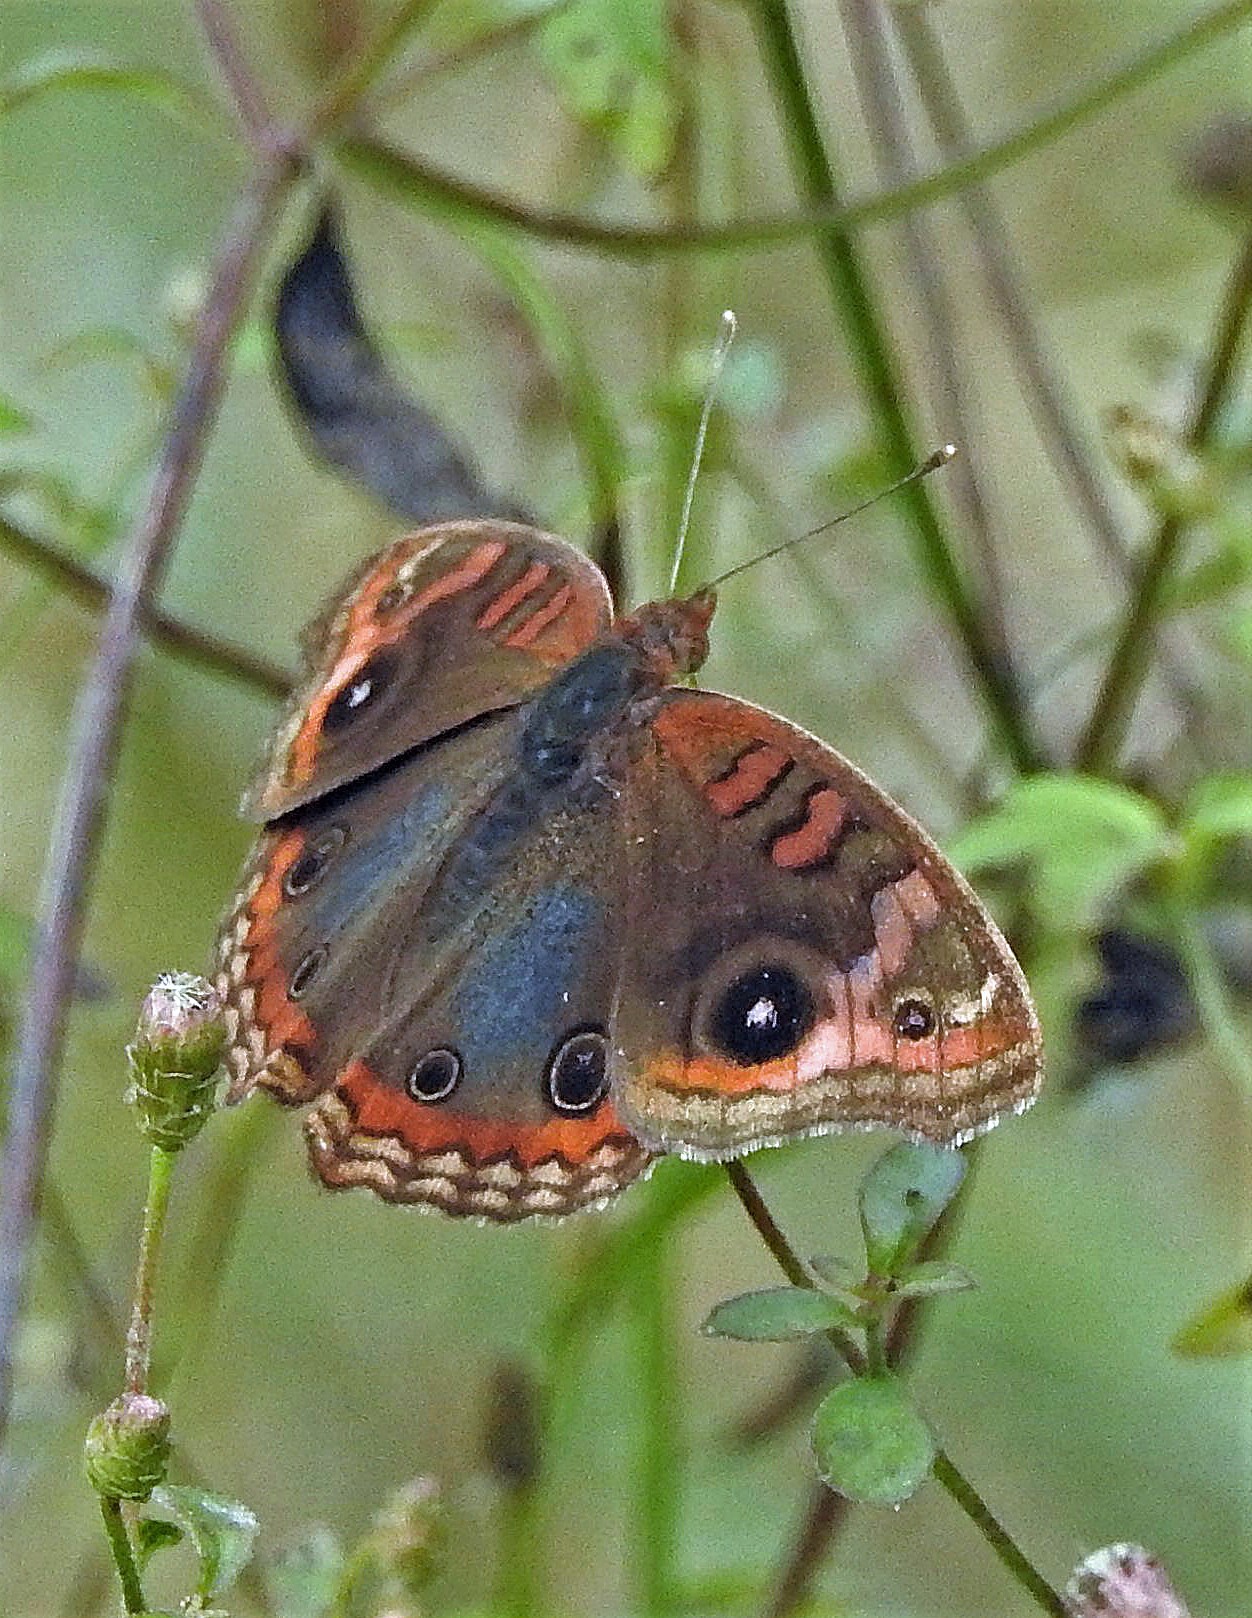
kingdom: Animalia
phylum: Arthropoda
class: Insecta
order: Lepidoptera
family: Nymphalidae
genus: Junonia
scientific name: Junonia lavinia
